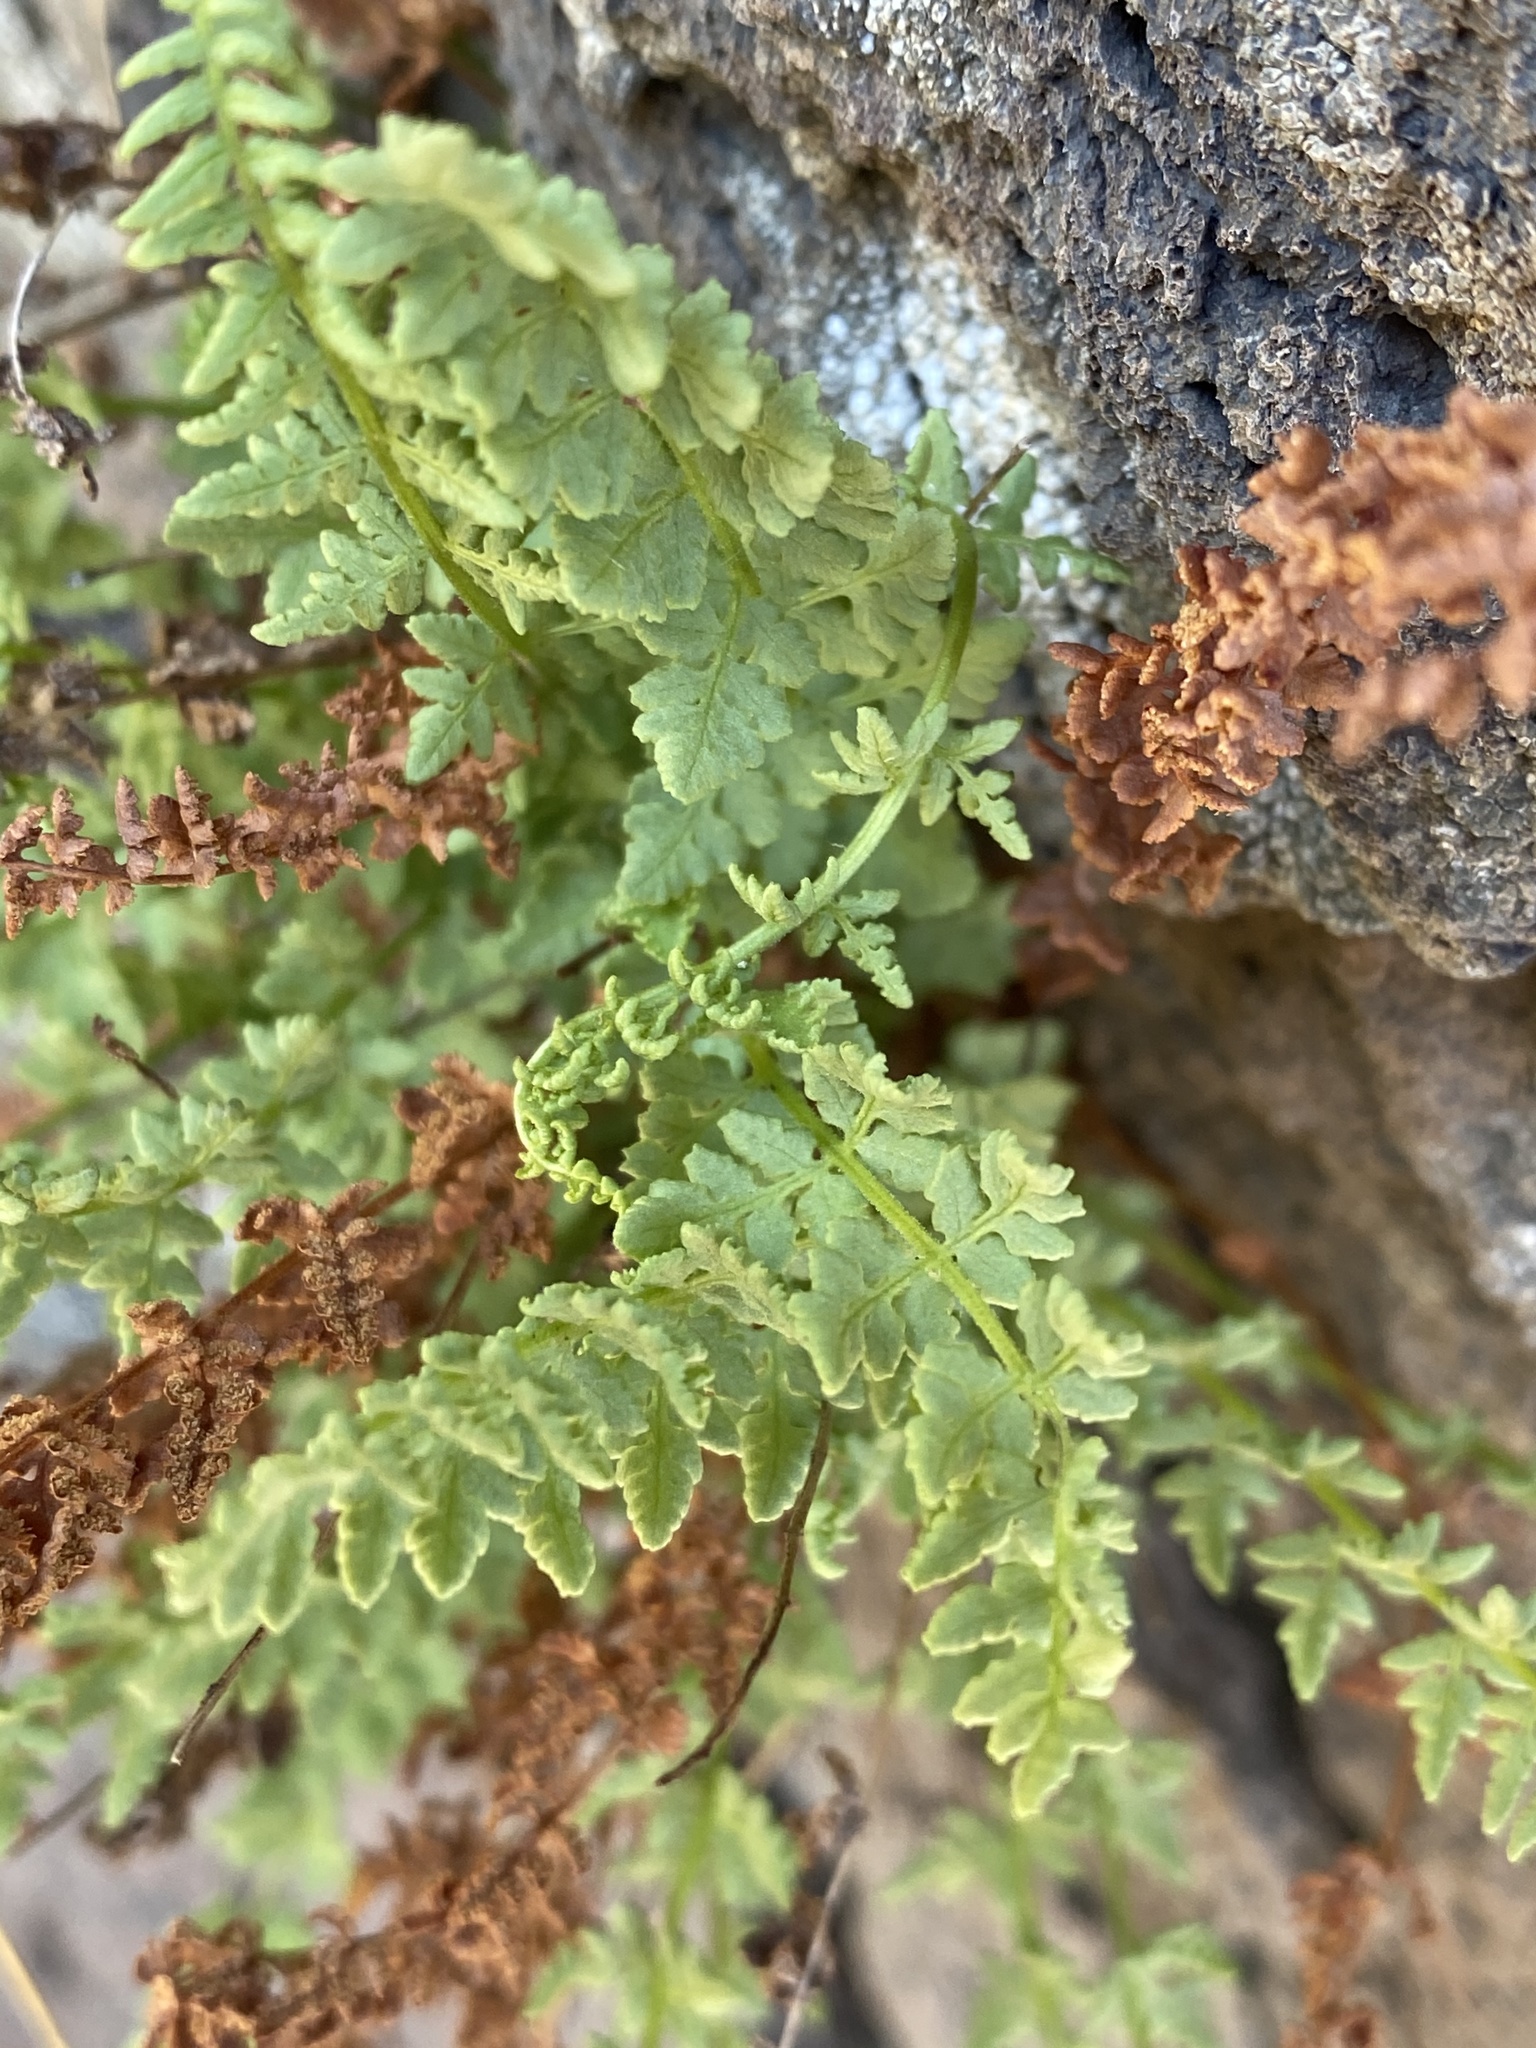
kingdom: Plantae
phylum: Tracheophyta
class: Polypodiopsida
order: Polypodiales
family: Woodsiaceae
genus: Physematium
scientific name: Physematium oreganum
